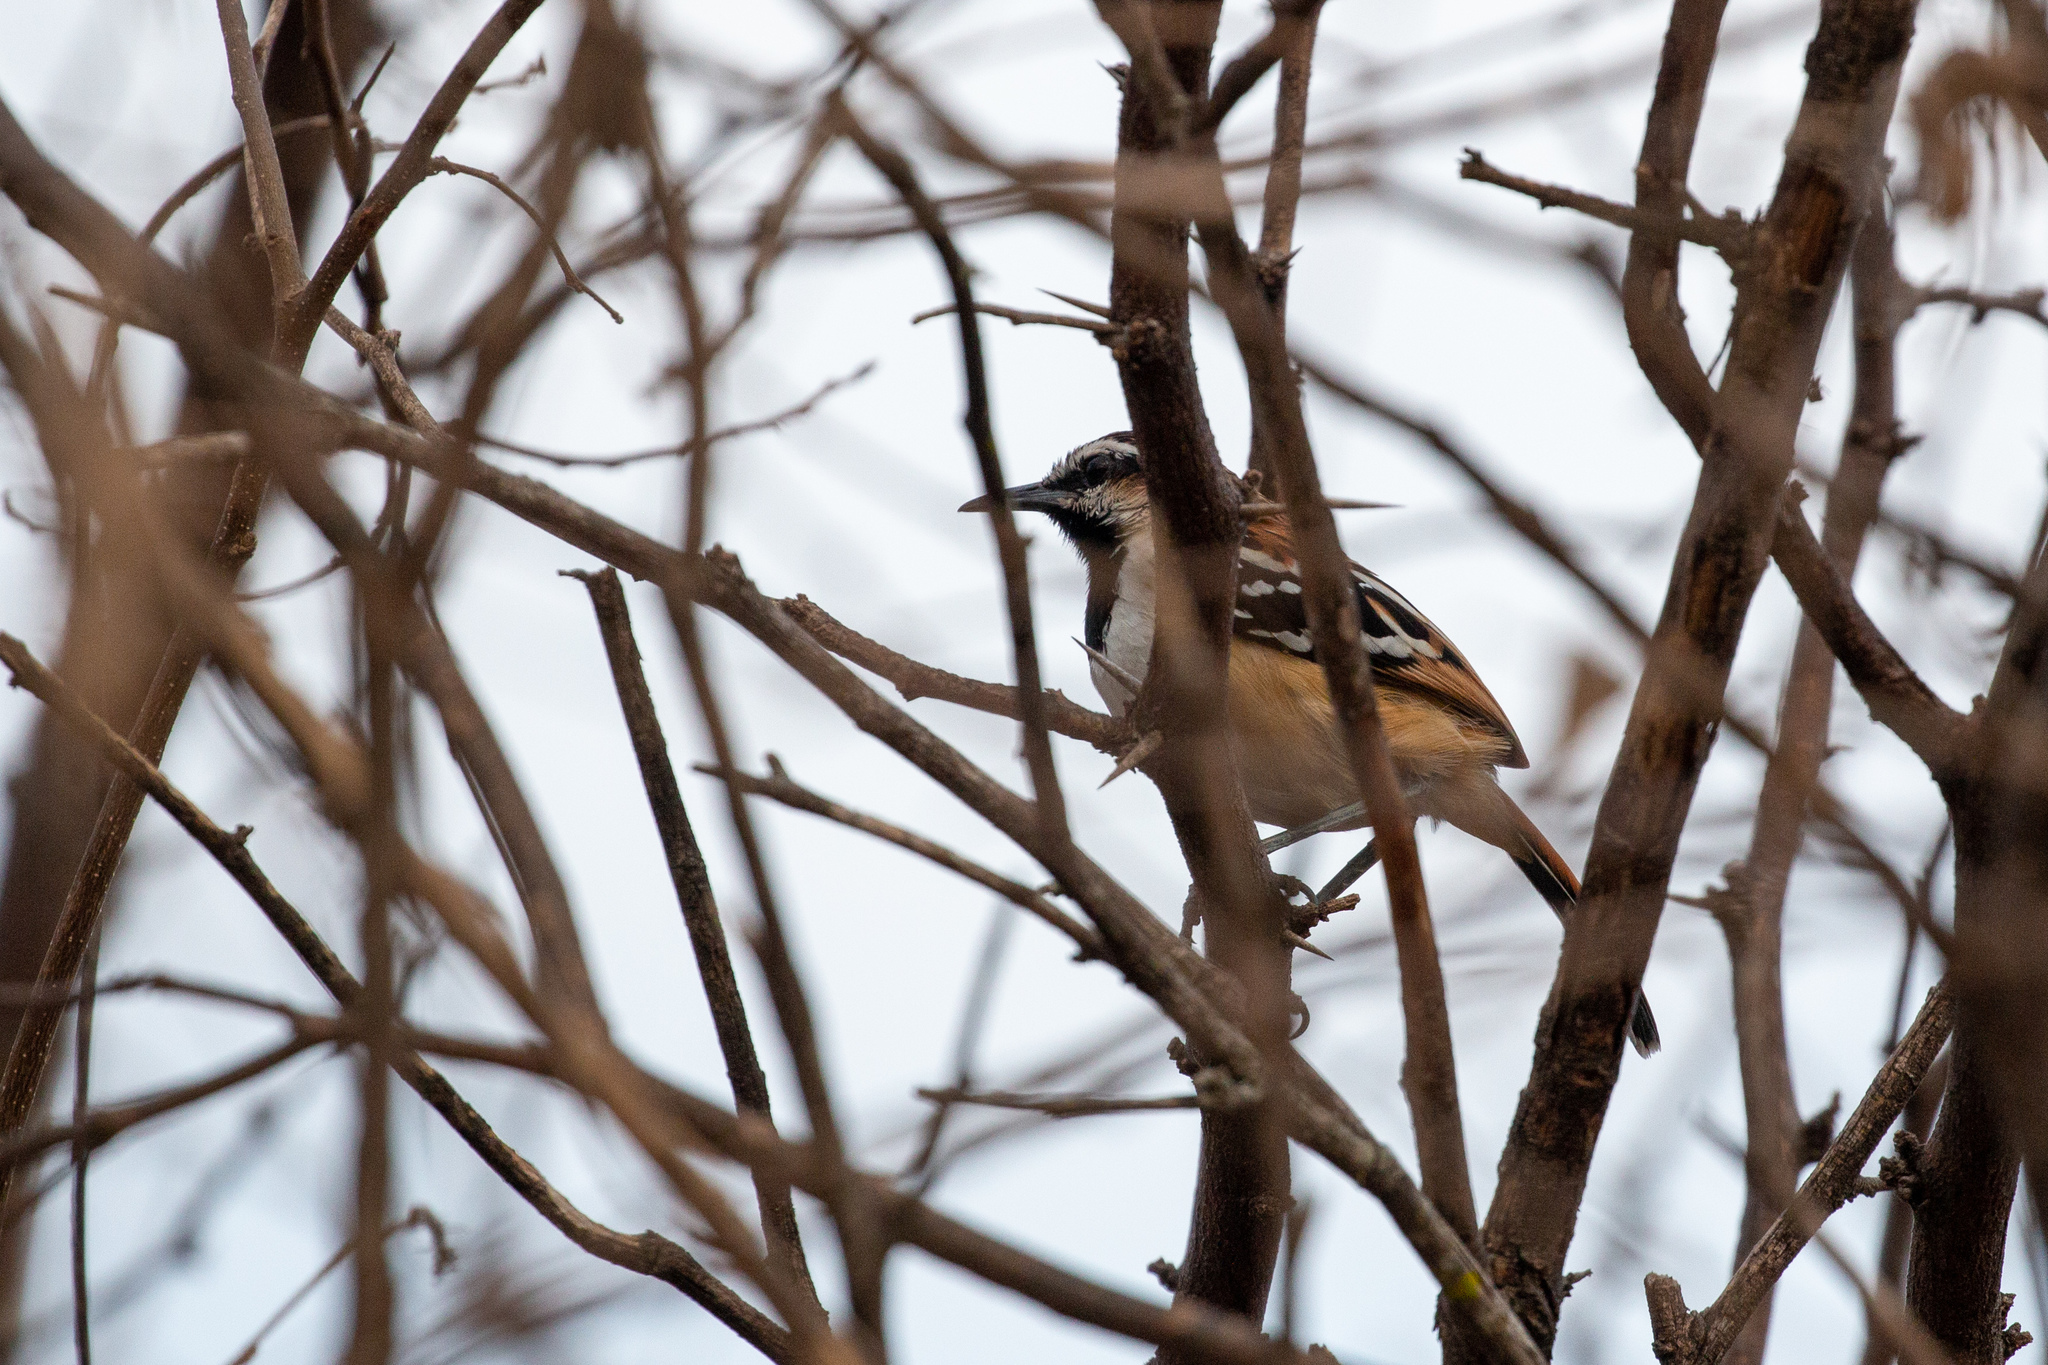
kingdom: Animalia
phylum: Chordata
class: Aves
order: Passeriformes
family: Thamnophilidae
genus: Myrmorchilus
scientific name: Myrmorchilus strigilatus
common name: Stripe-backed antbird
